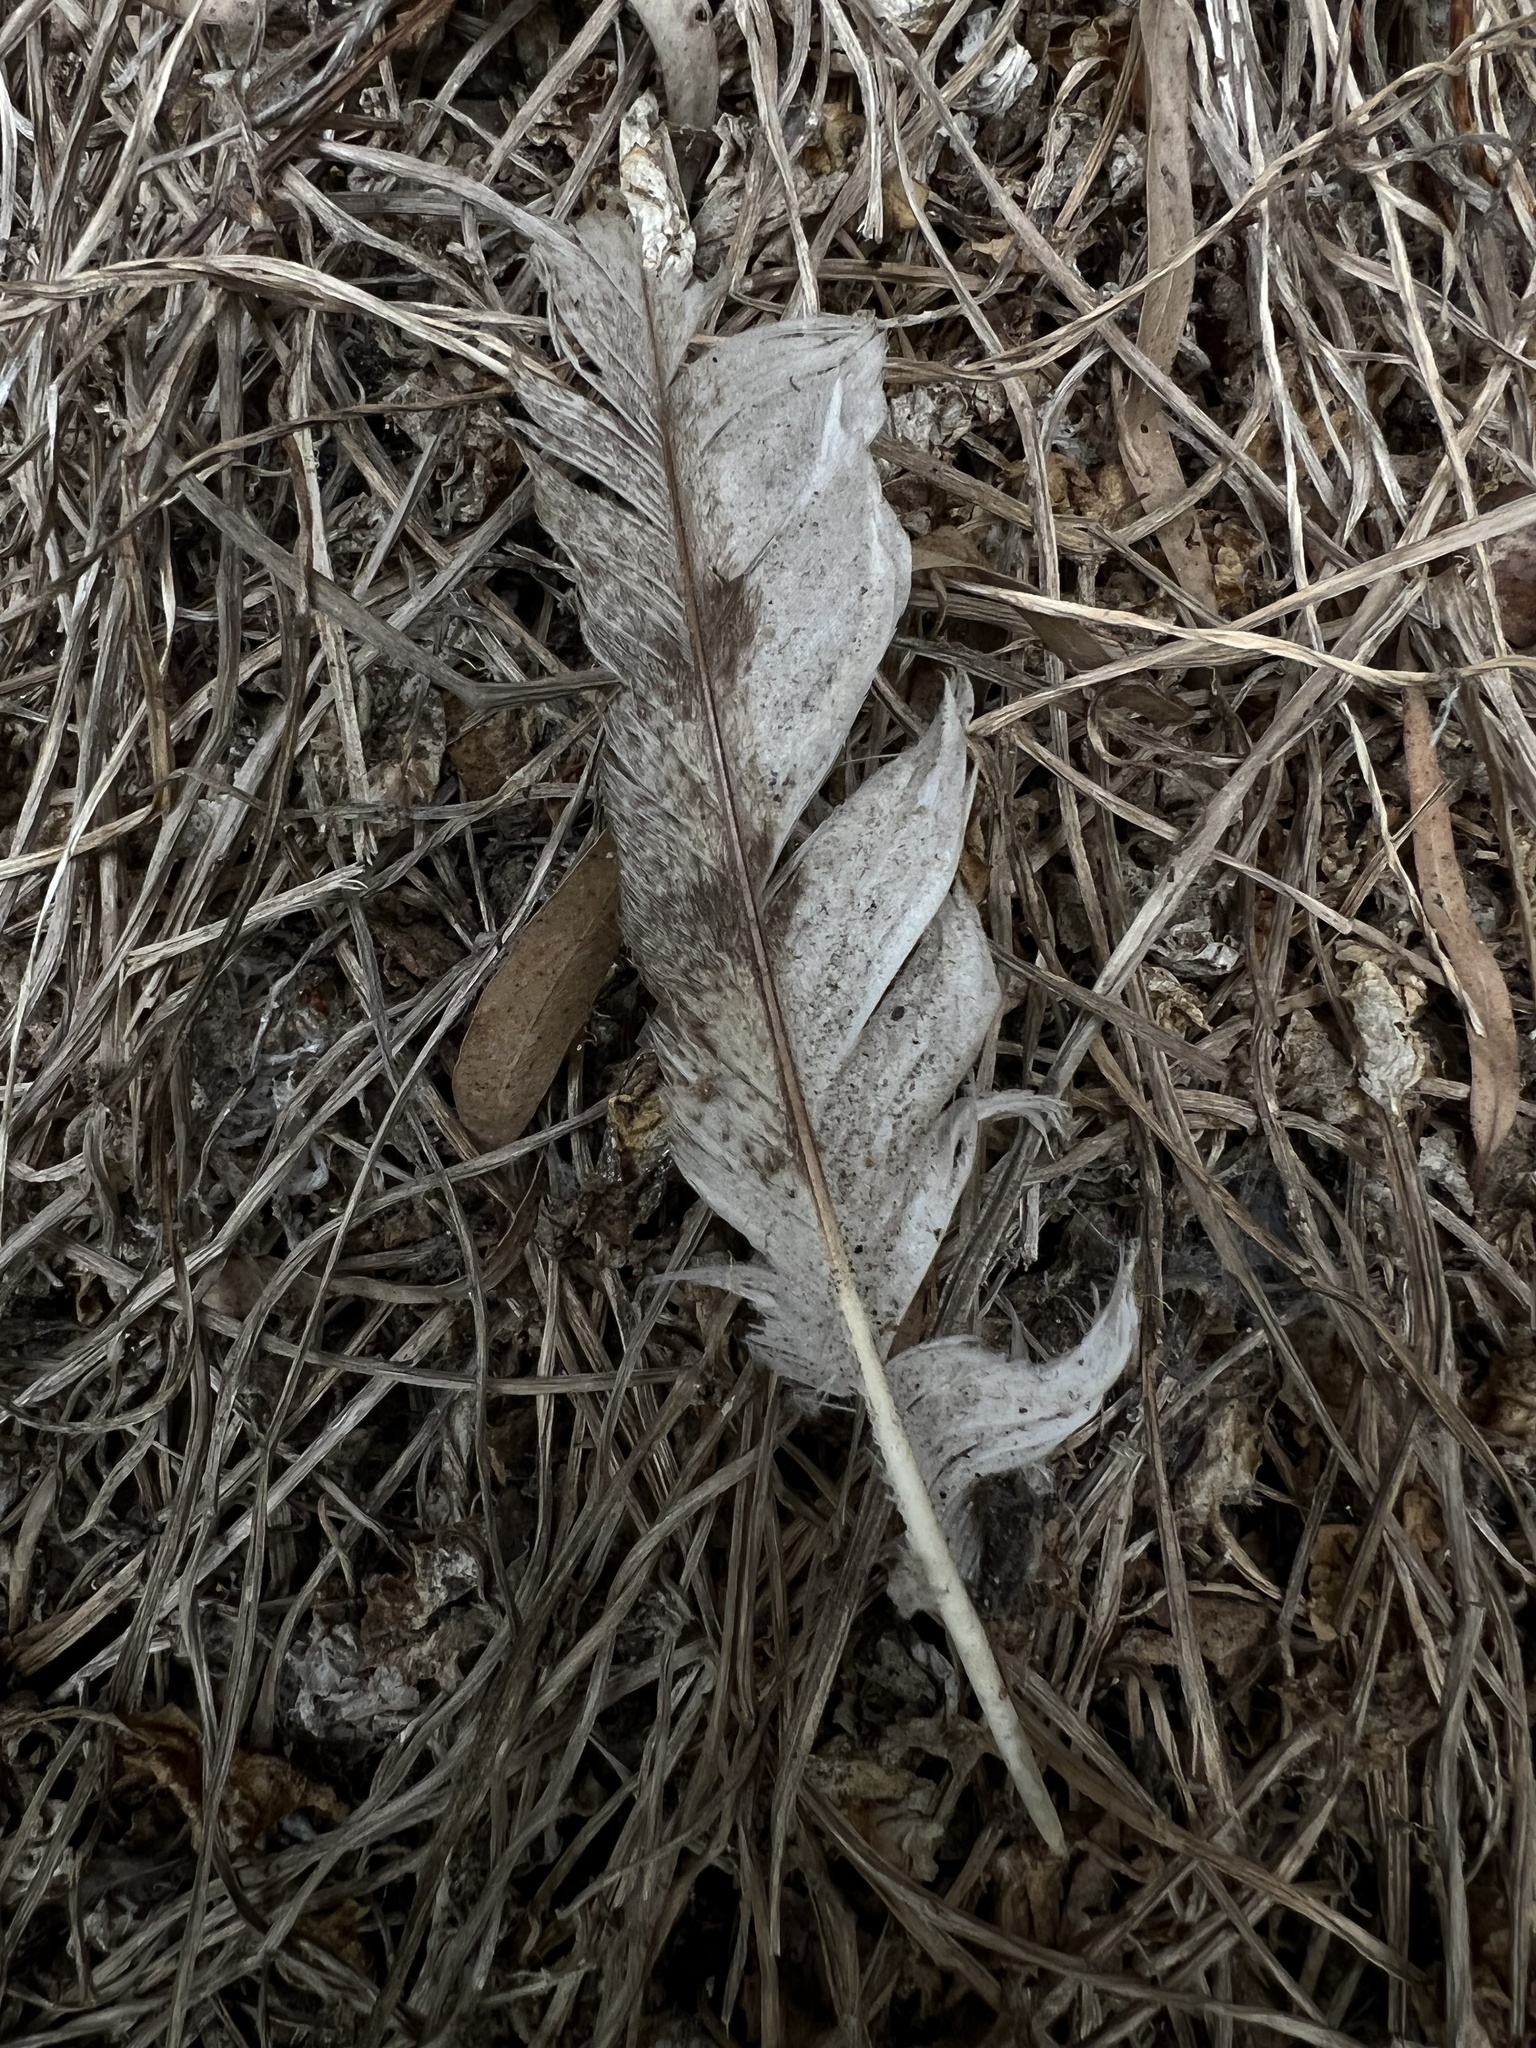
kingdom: Animalia
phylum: Chordata
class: Aves
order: Strigiformes
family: Tytonidae
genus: Tyto
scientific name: Tyto alba
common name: Barn owl
